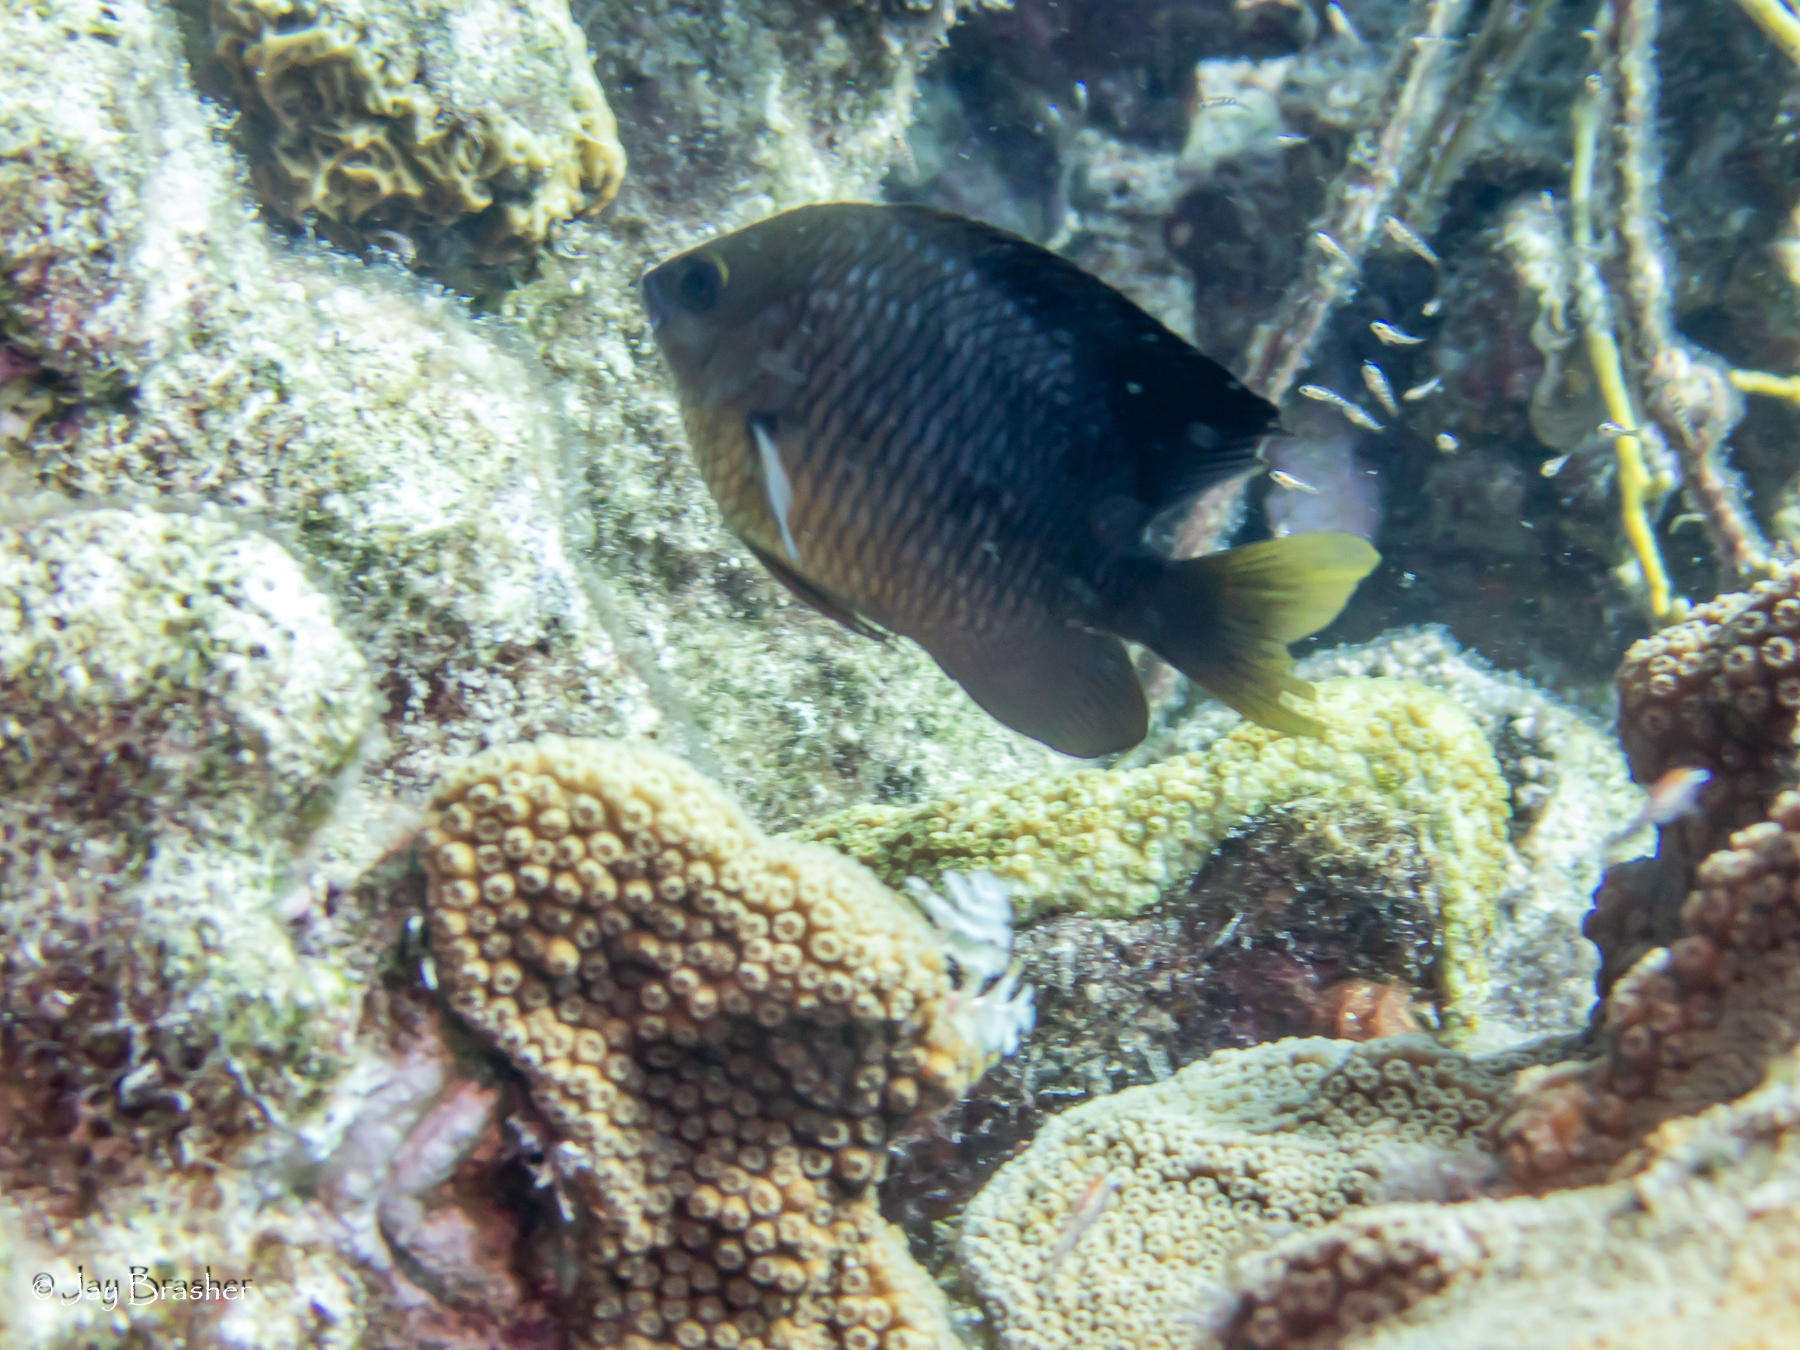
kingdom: Animalia
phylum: Chordata
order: Perciformes
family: Pomacentridae
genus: Stegastes
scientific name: Stegastes planifrons
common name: Threespot damselfish
